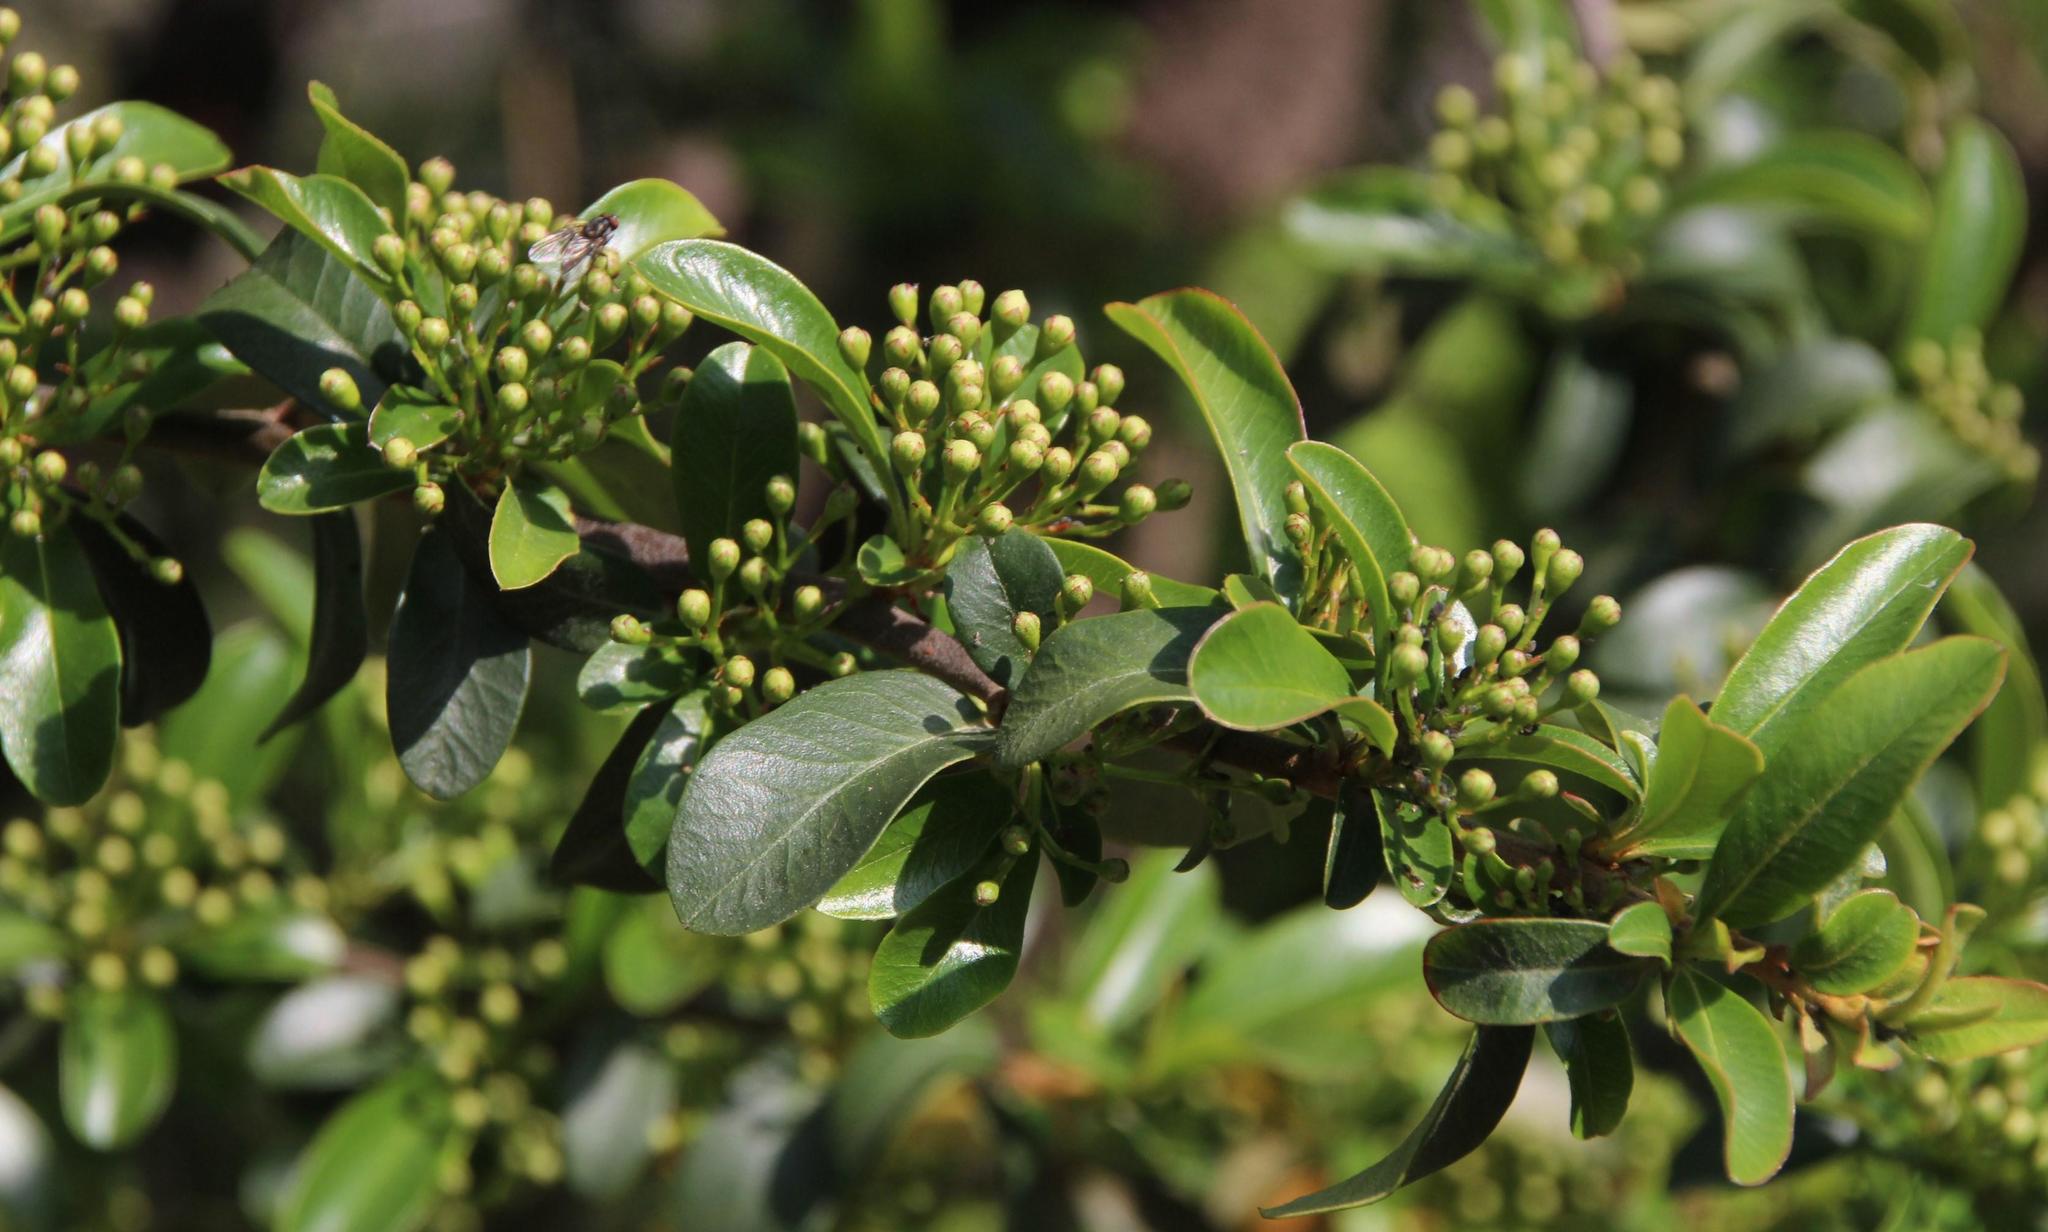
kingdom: Plantae
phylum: Tracheophyta
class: Magnoliopsida
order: Rosales
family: Rosaceae
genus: Pyracantha
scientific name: Pyracantha coccinea
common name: Firethorn
